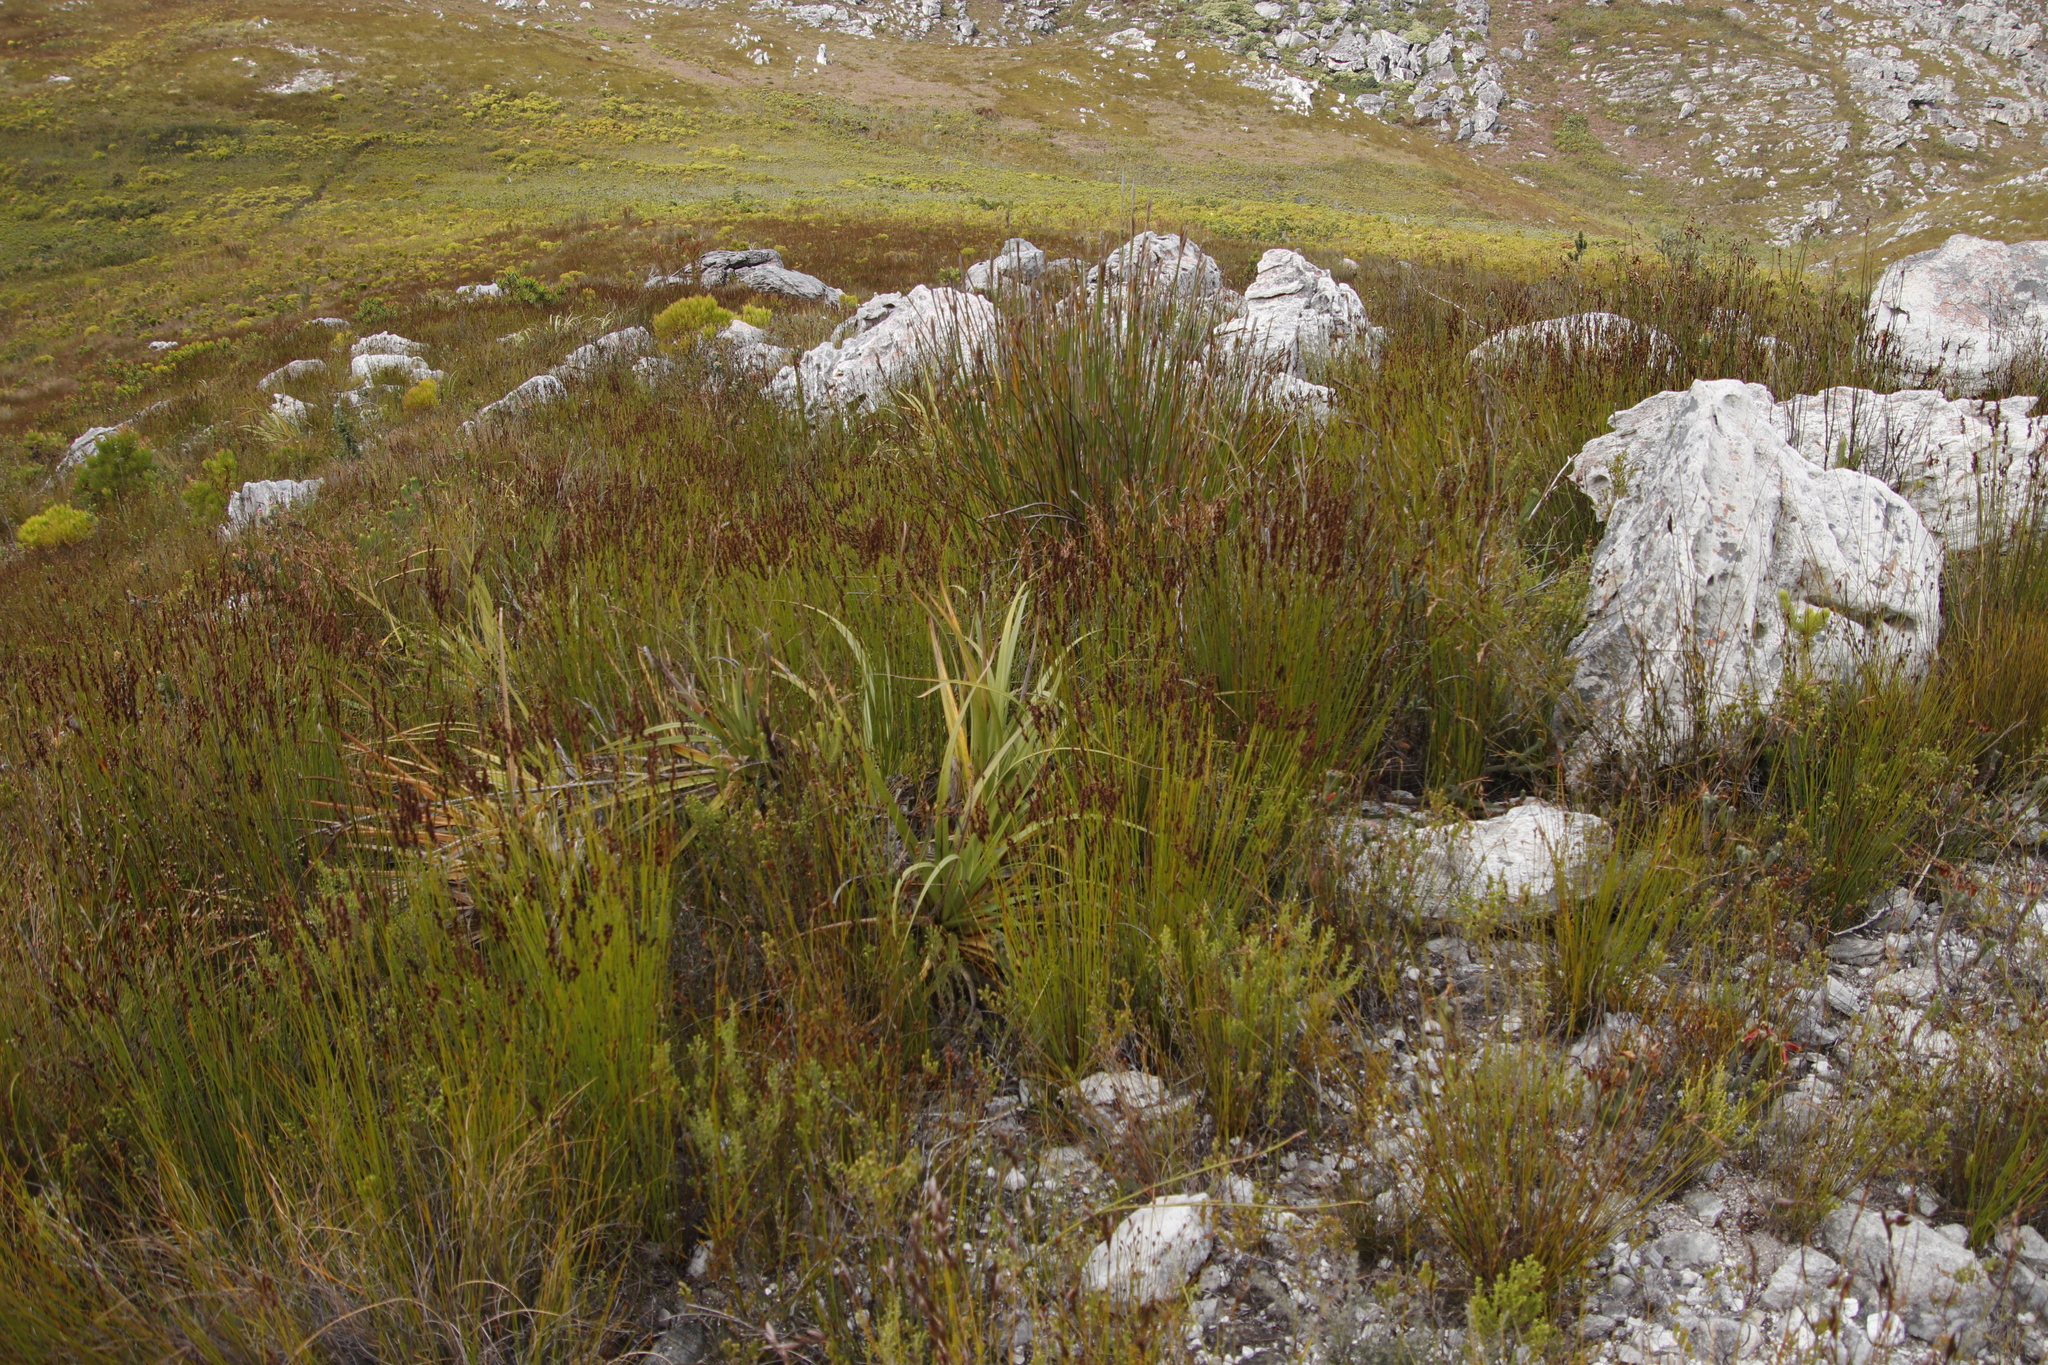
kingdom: Plantae
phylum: Tracheophyta
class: Liliopsida
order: Poales
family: Cyperaceae
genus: Tetraria
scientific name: Tetraria thermalis
